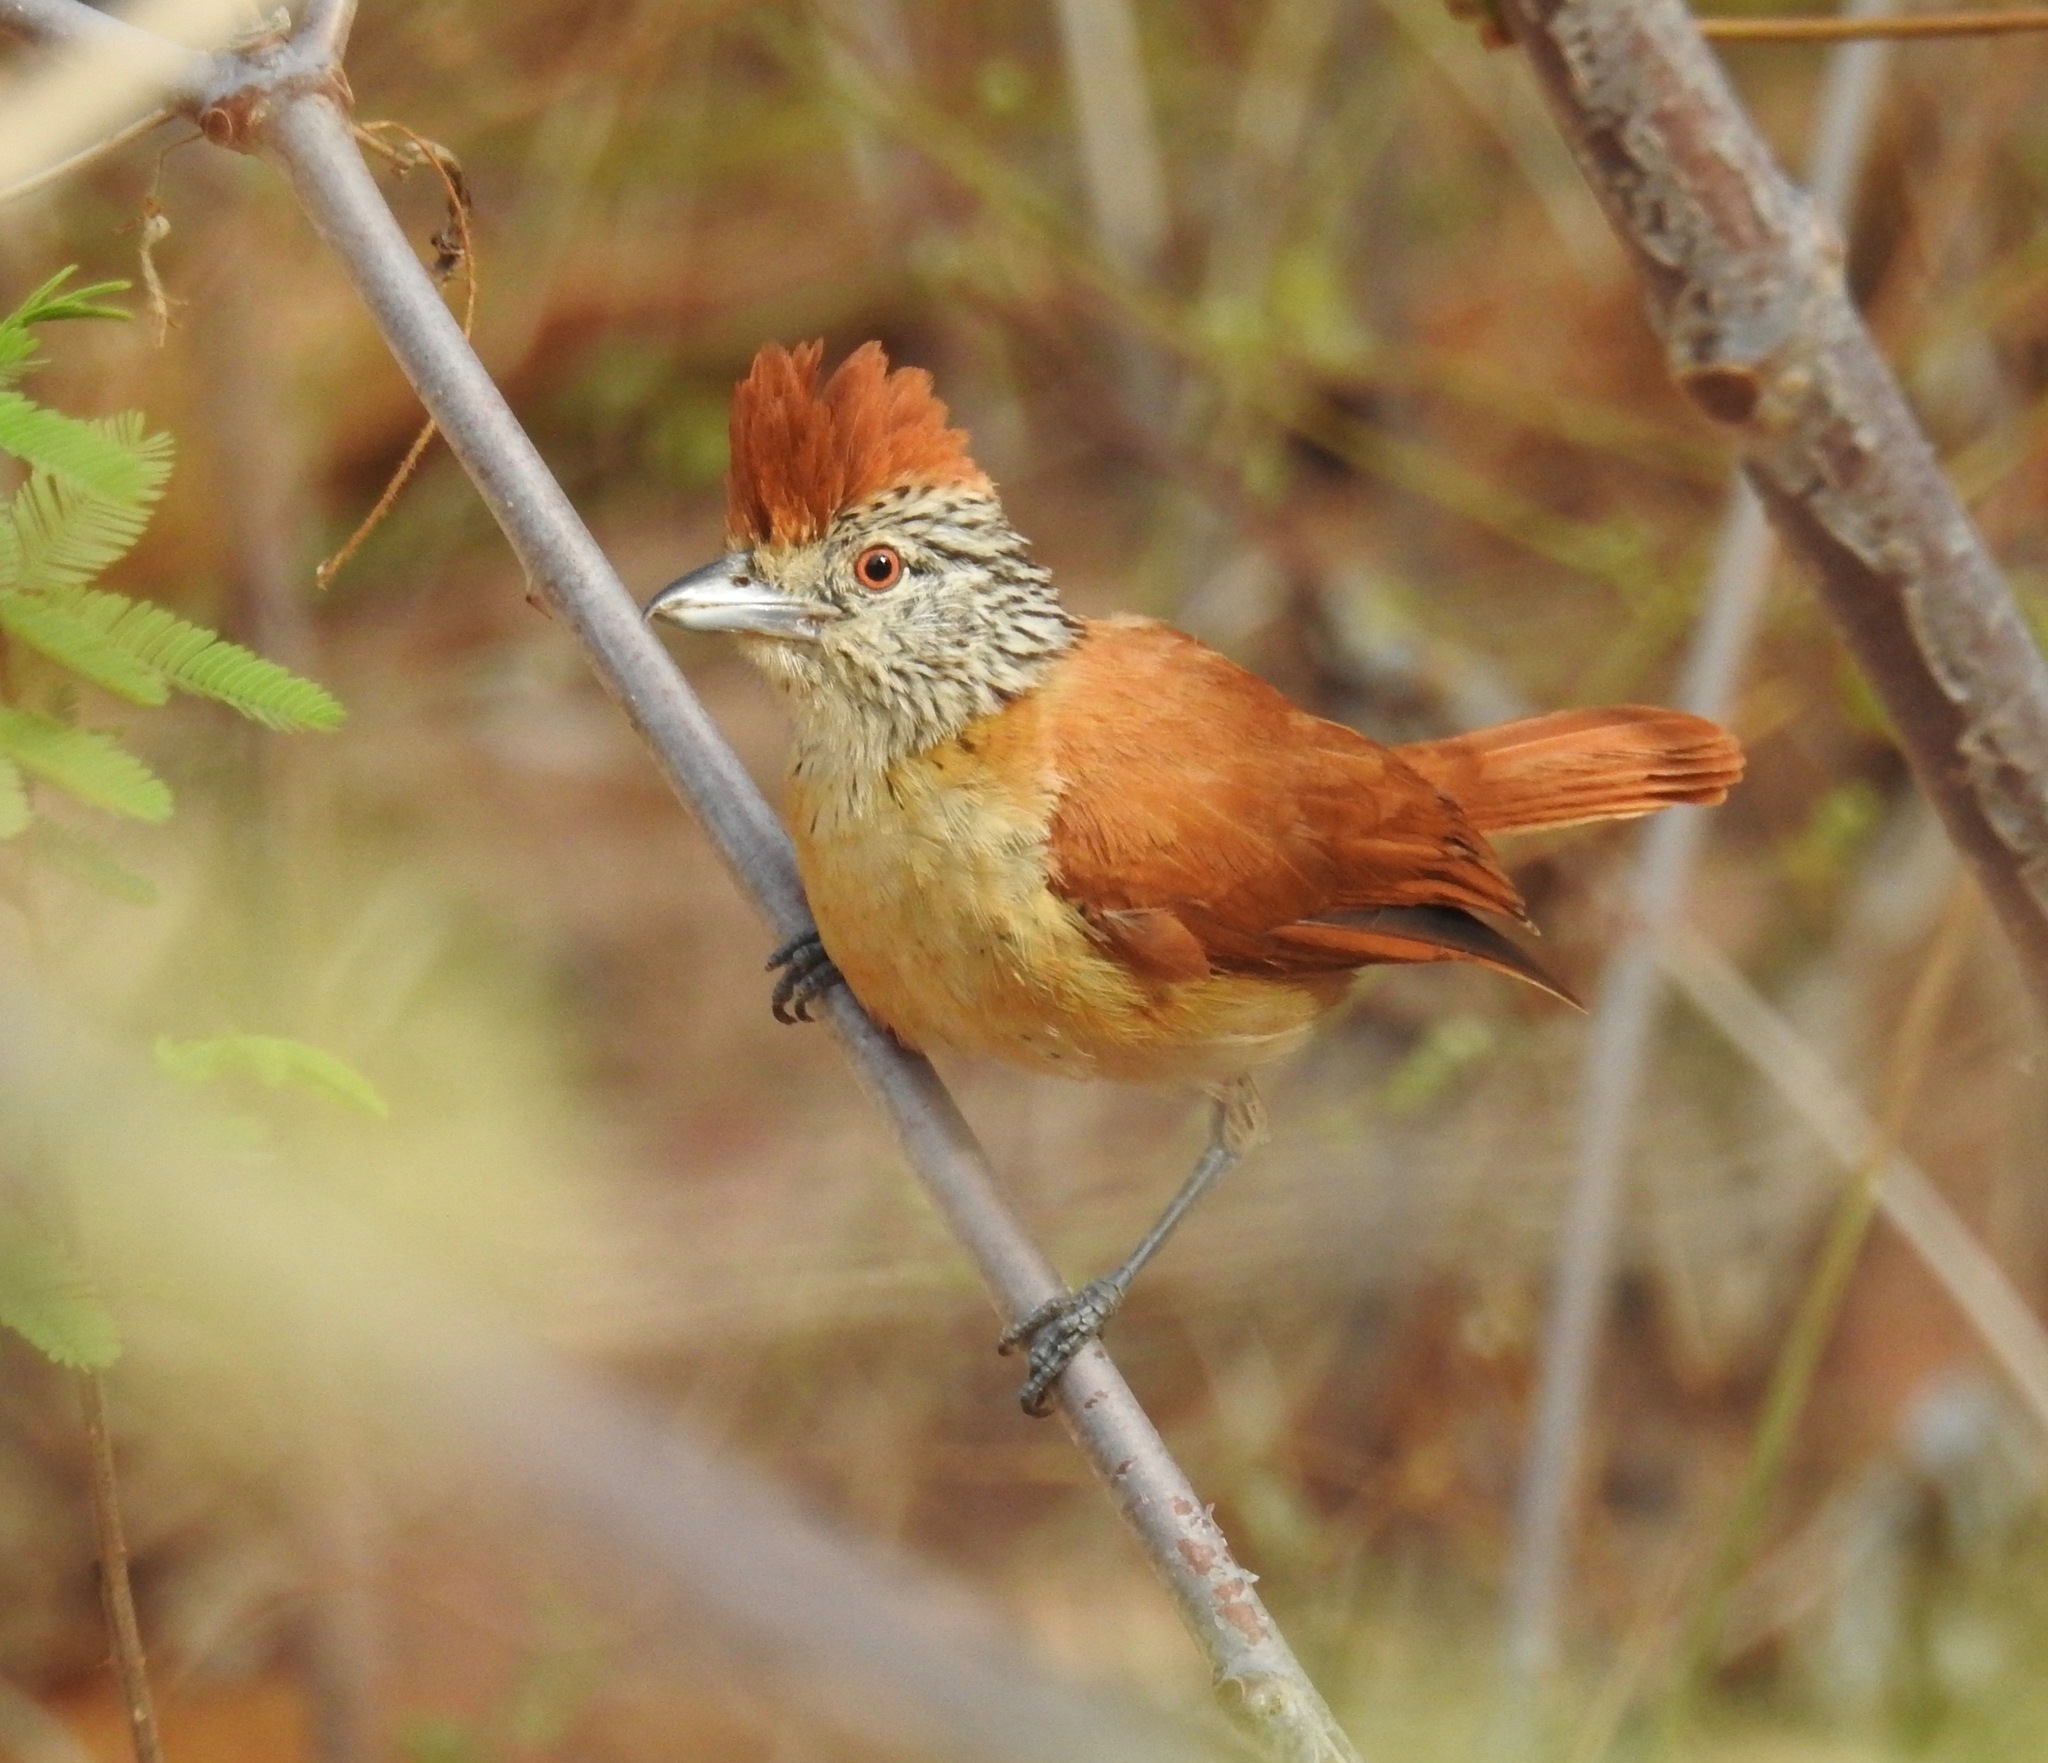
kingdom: Animalia
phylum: Chordata
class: Aves
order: Passeriformes
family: Thamnophilidae
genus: Thamnophilus
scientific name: Thamnophilus doliatus
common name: Barred antshrike
